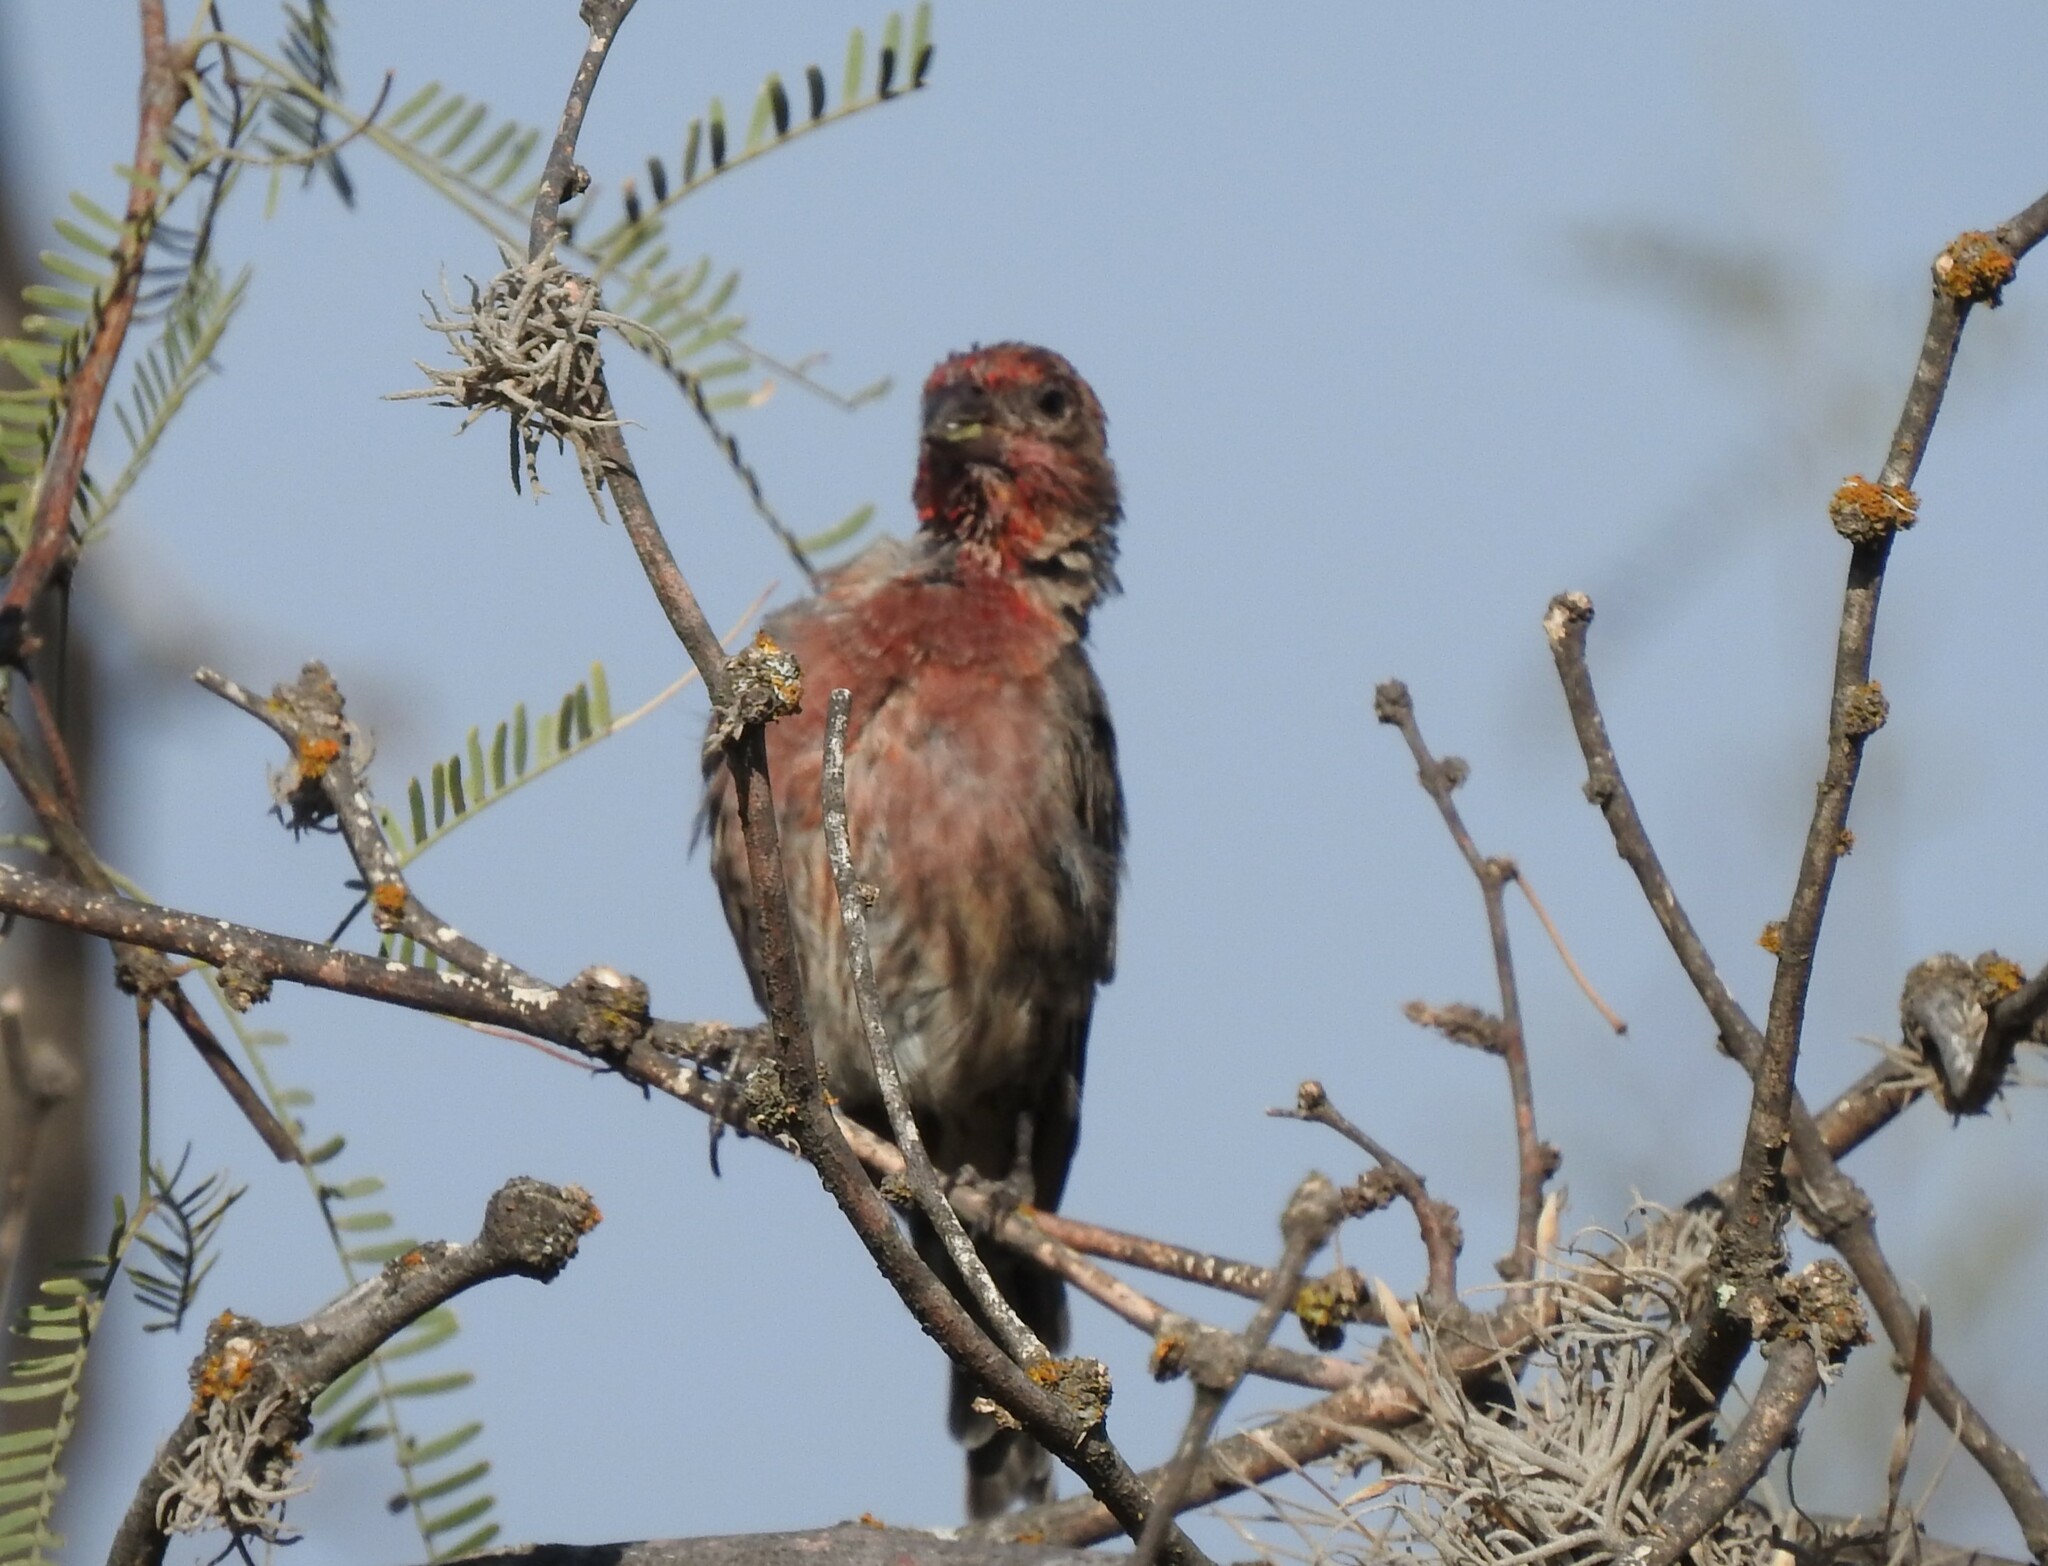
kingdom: Animalia
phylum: Chordata
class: Aves
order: Passeriformes
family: Fringillidae
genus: Haemorhous
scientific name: Haemorhous mexicanus
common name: House finch
